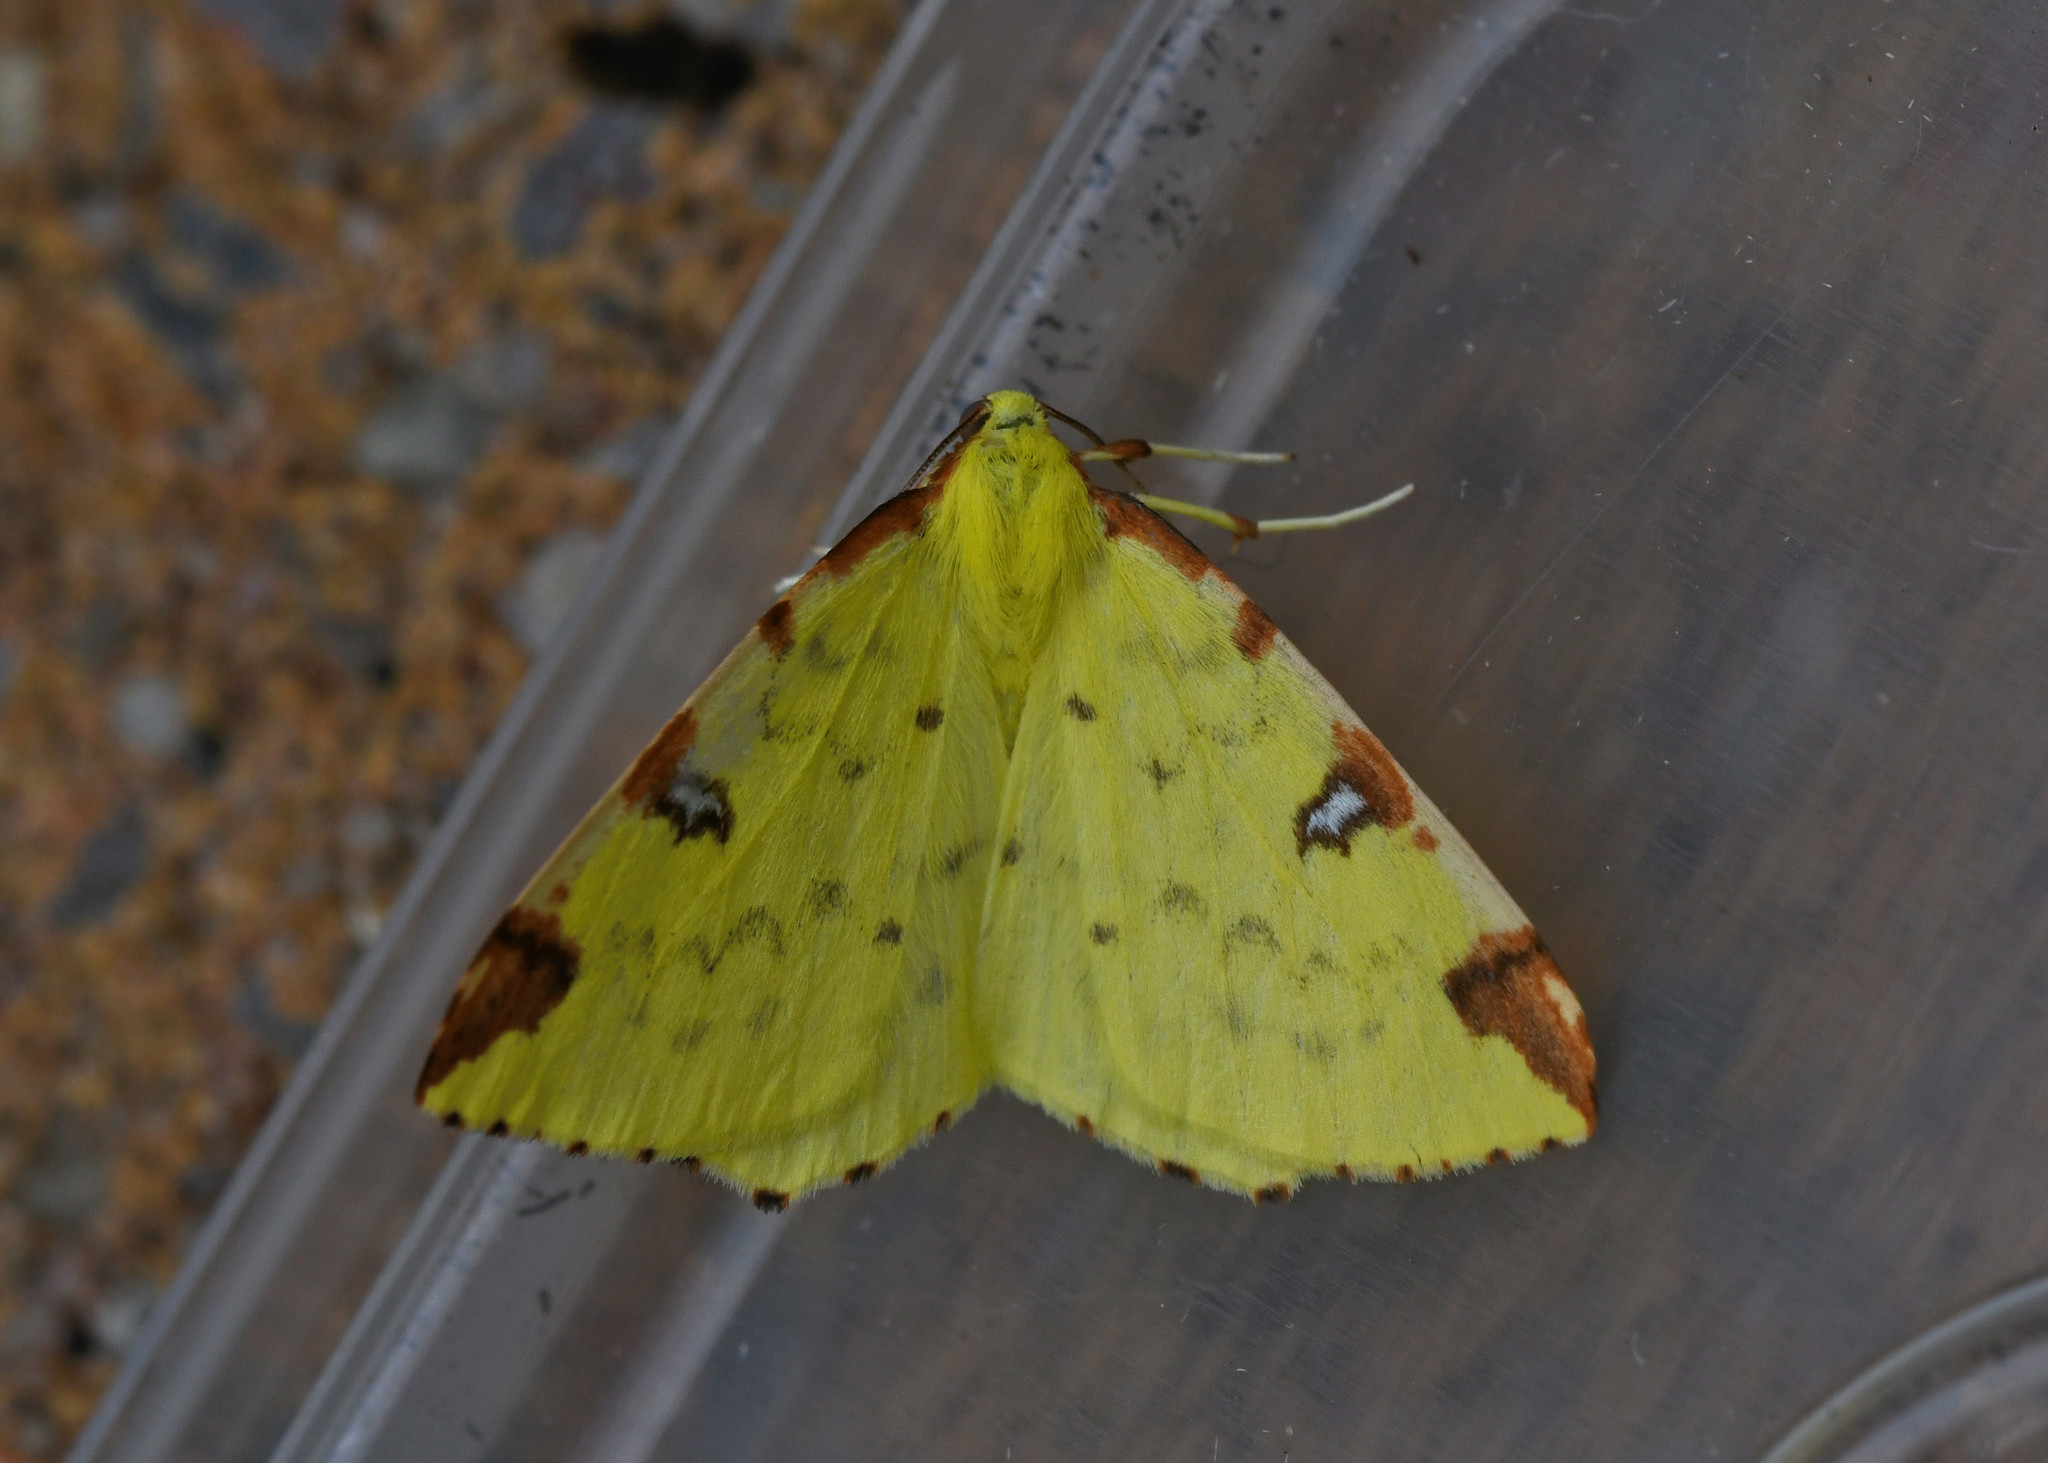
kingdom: Animalia
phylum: Arthropoda
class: Insecta
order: Lepidoptera
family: Geometridae
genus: Opisthograptis
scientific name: Opisthograptis luteolata
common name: Brimstone moth
